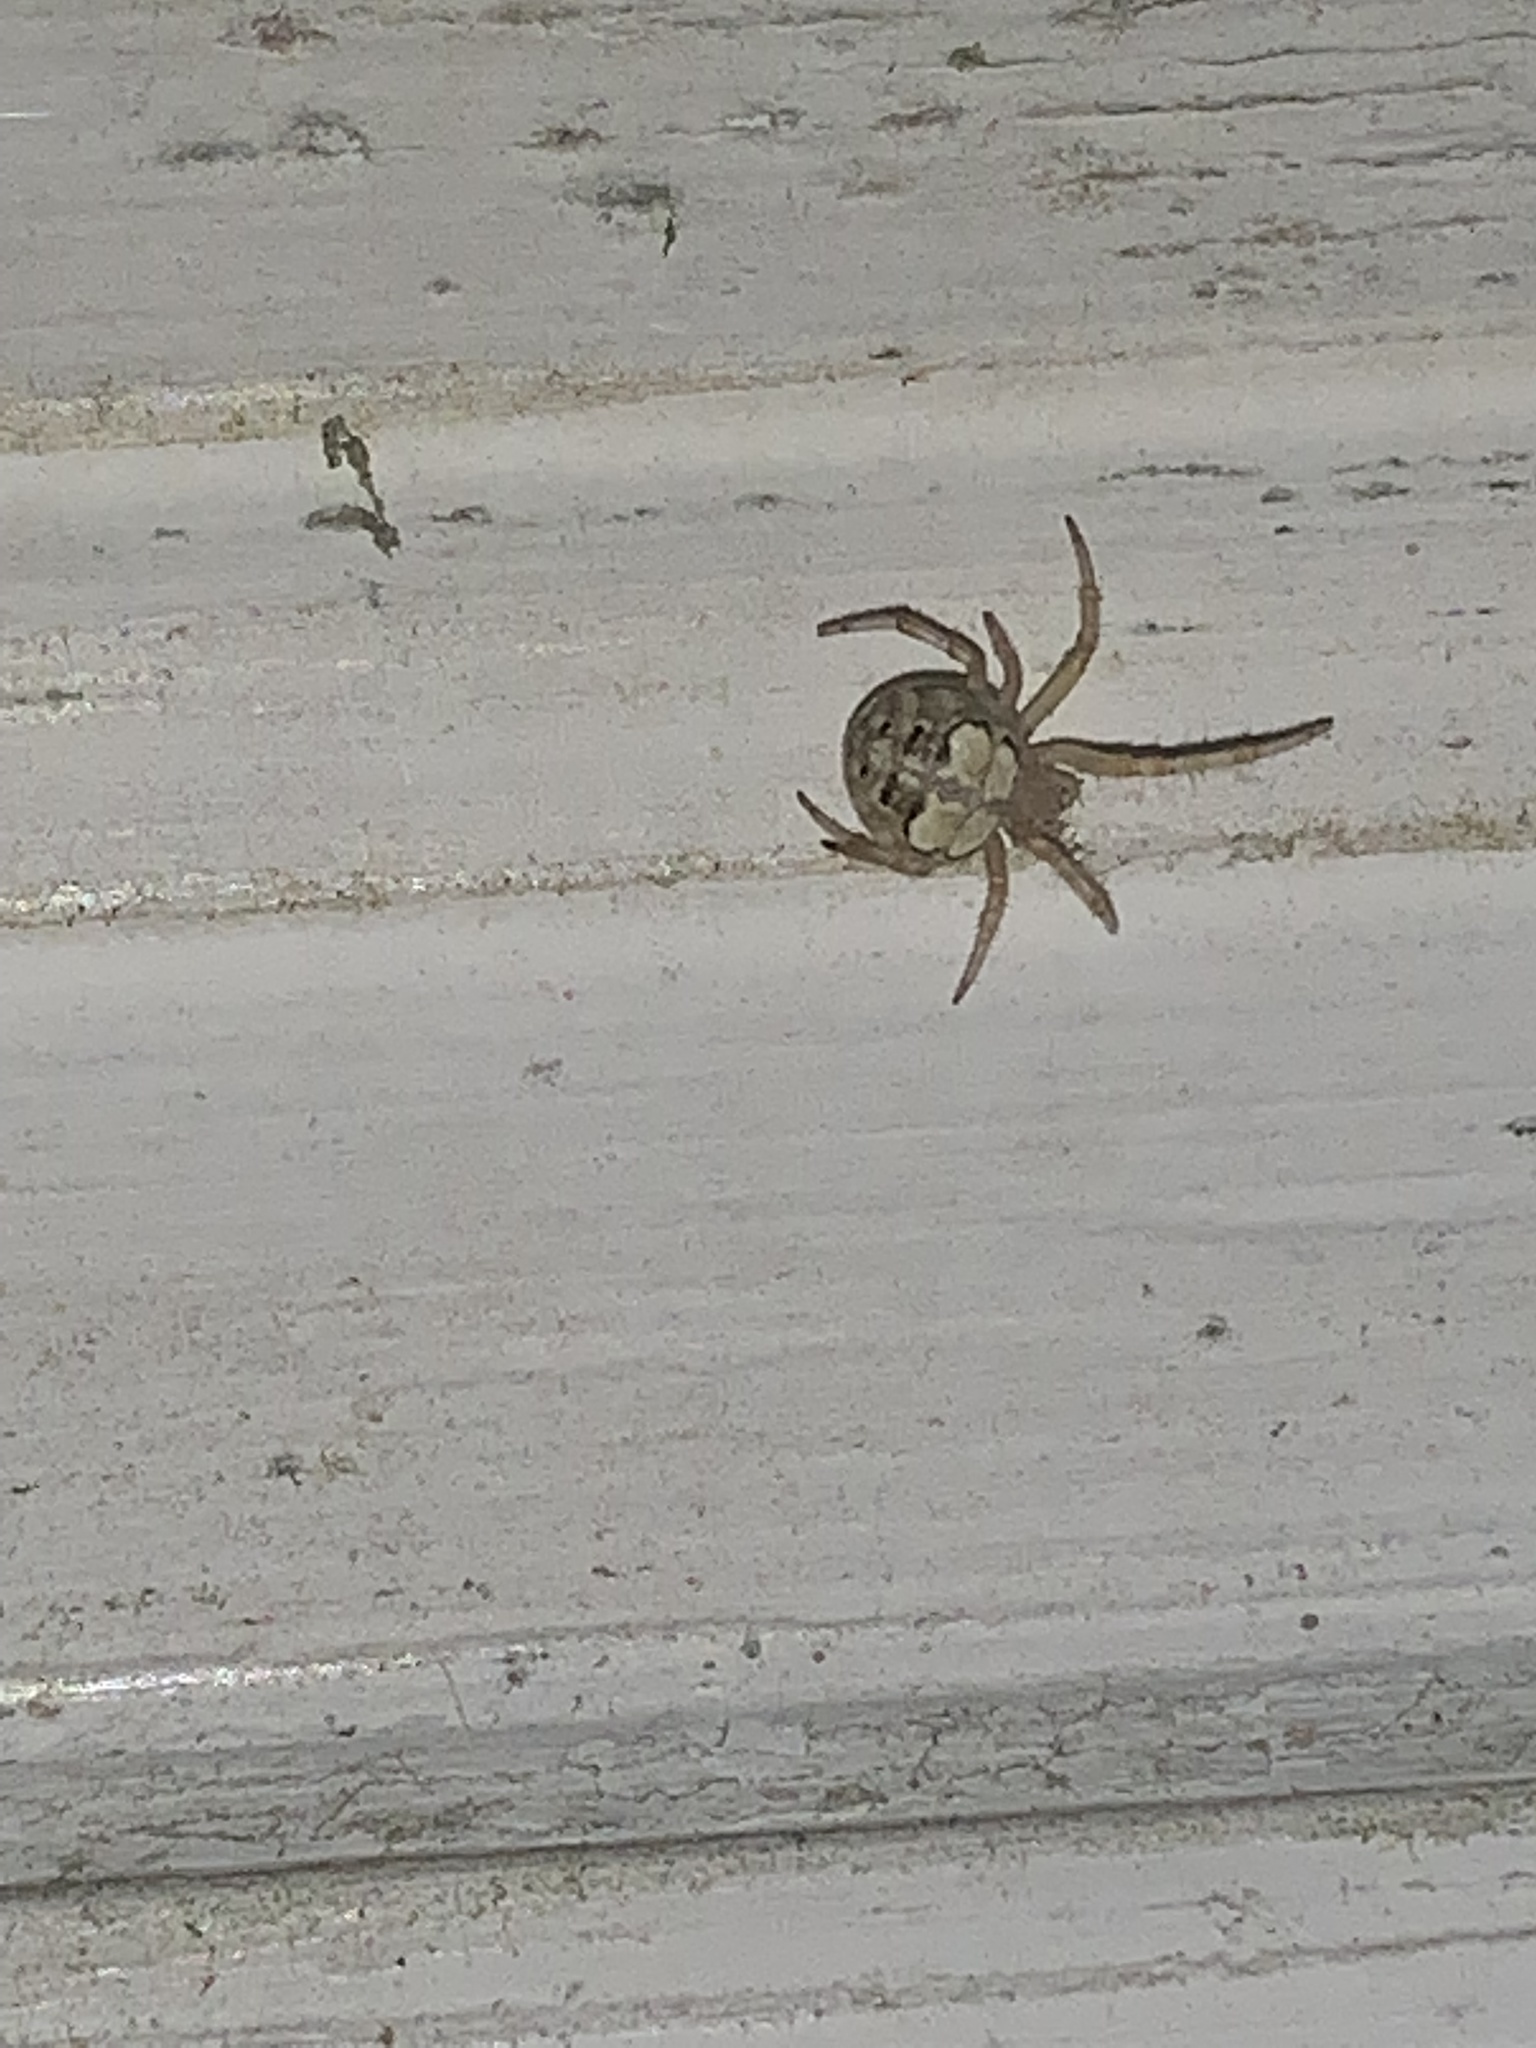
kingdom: Animalia
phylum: Arthropoda
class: Arachnida
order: Araneae
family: Araneidae
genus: Araneus
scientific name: Araneus pegnia
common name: Orb weavers
